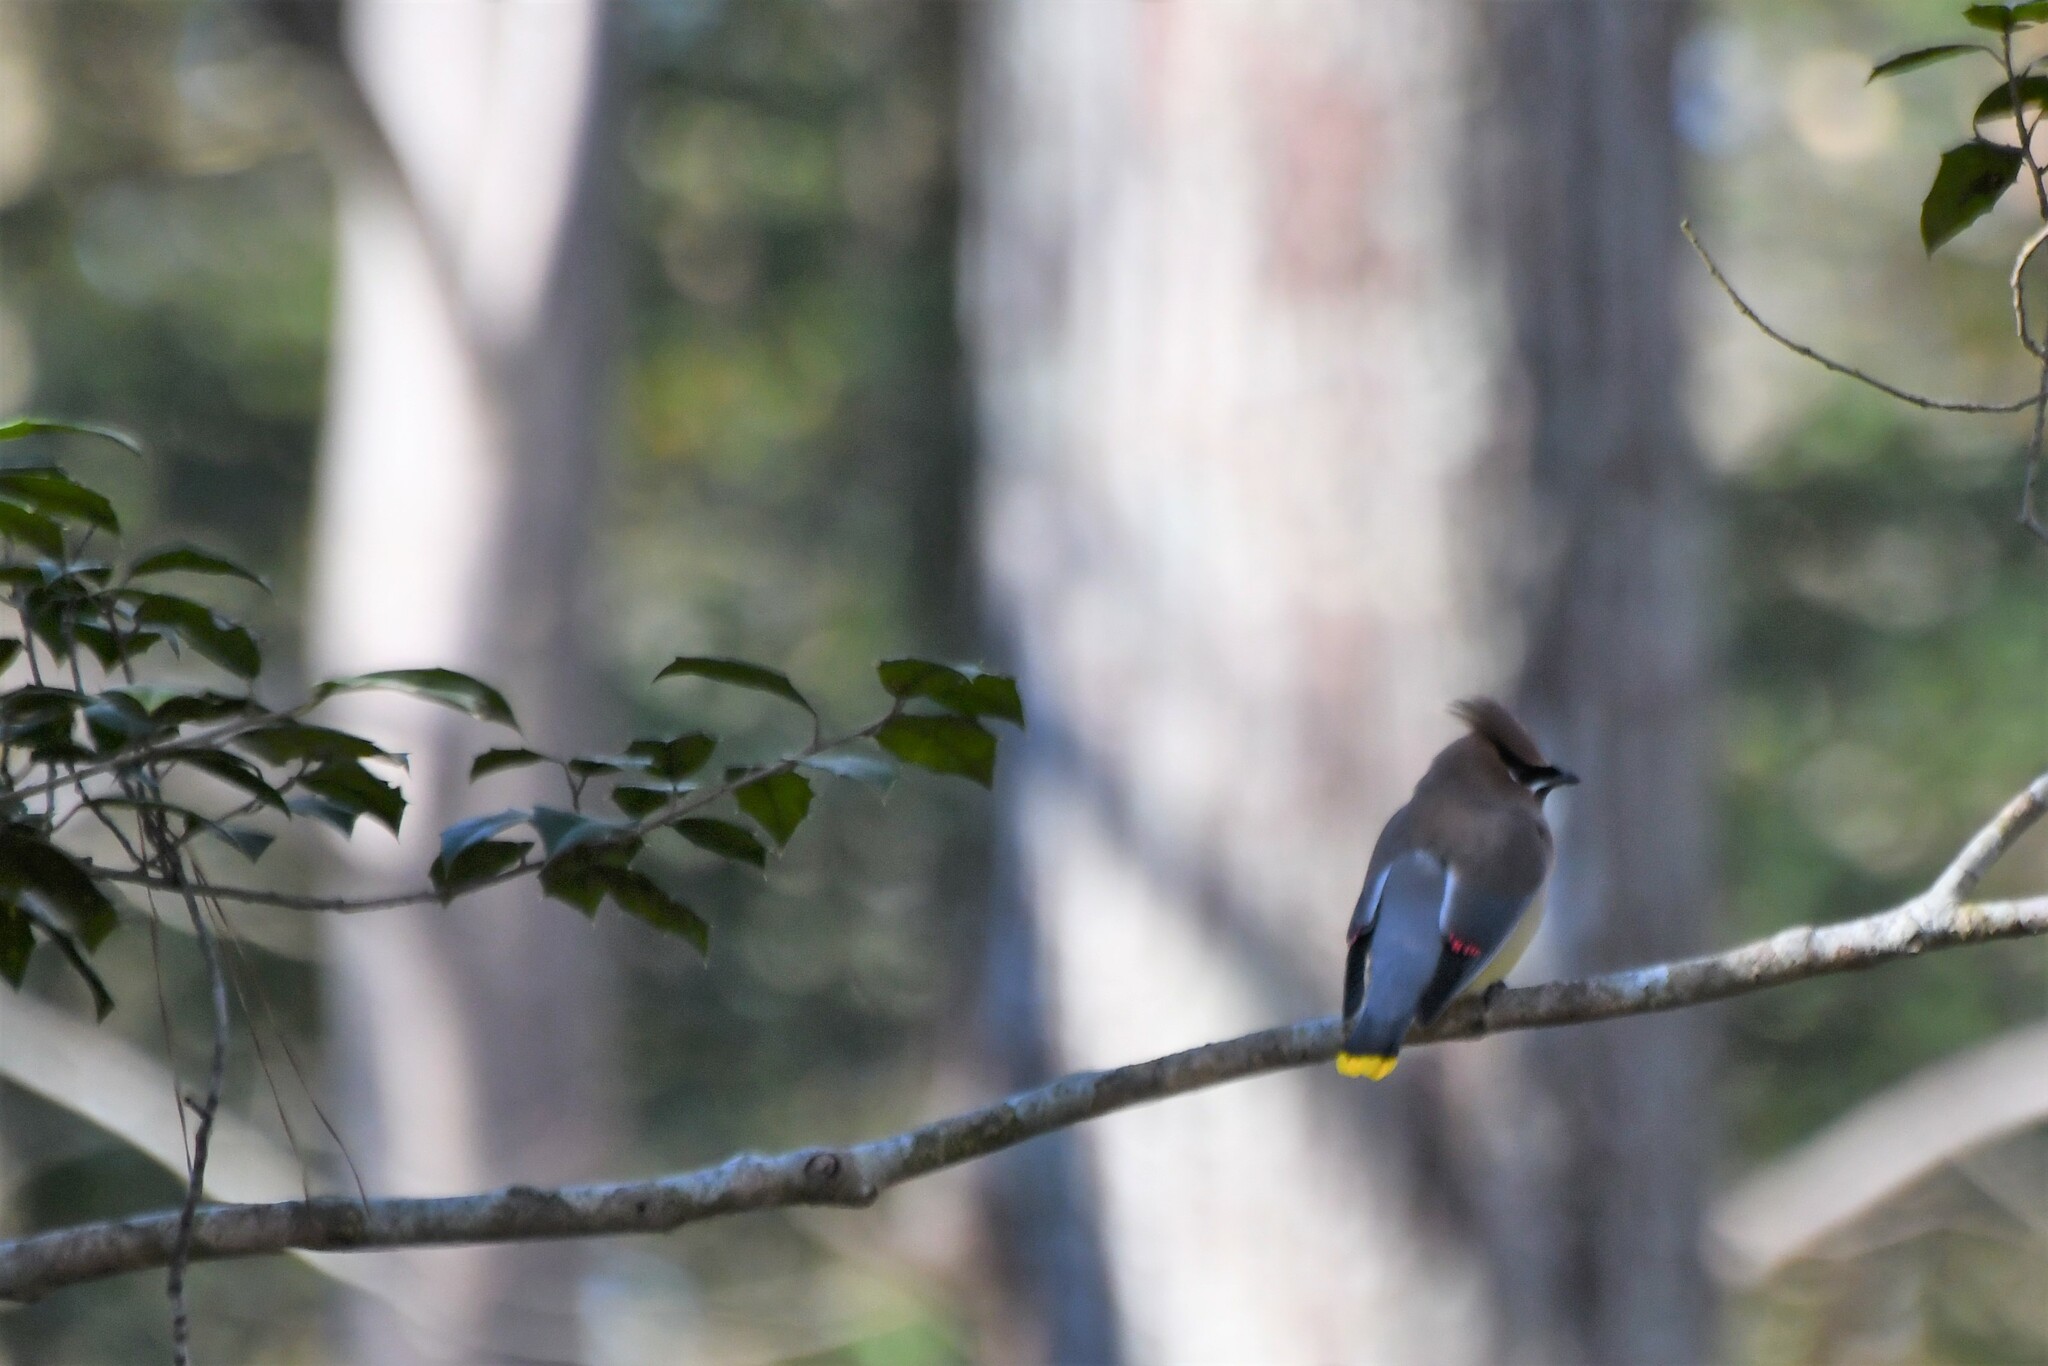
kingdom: Animalia
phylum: Chordata
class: Aves
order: Passeriformes
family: Bombycillidae
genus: Bombycilla
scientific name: Bombycilla cedrorum
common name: Cedar waxwing
